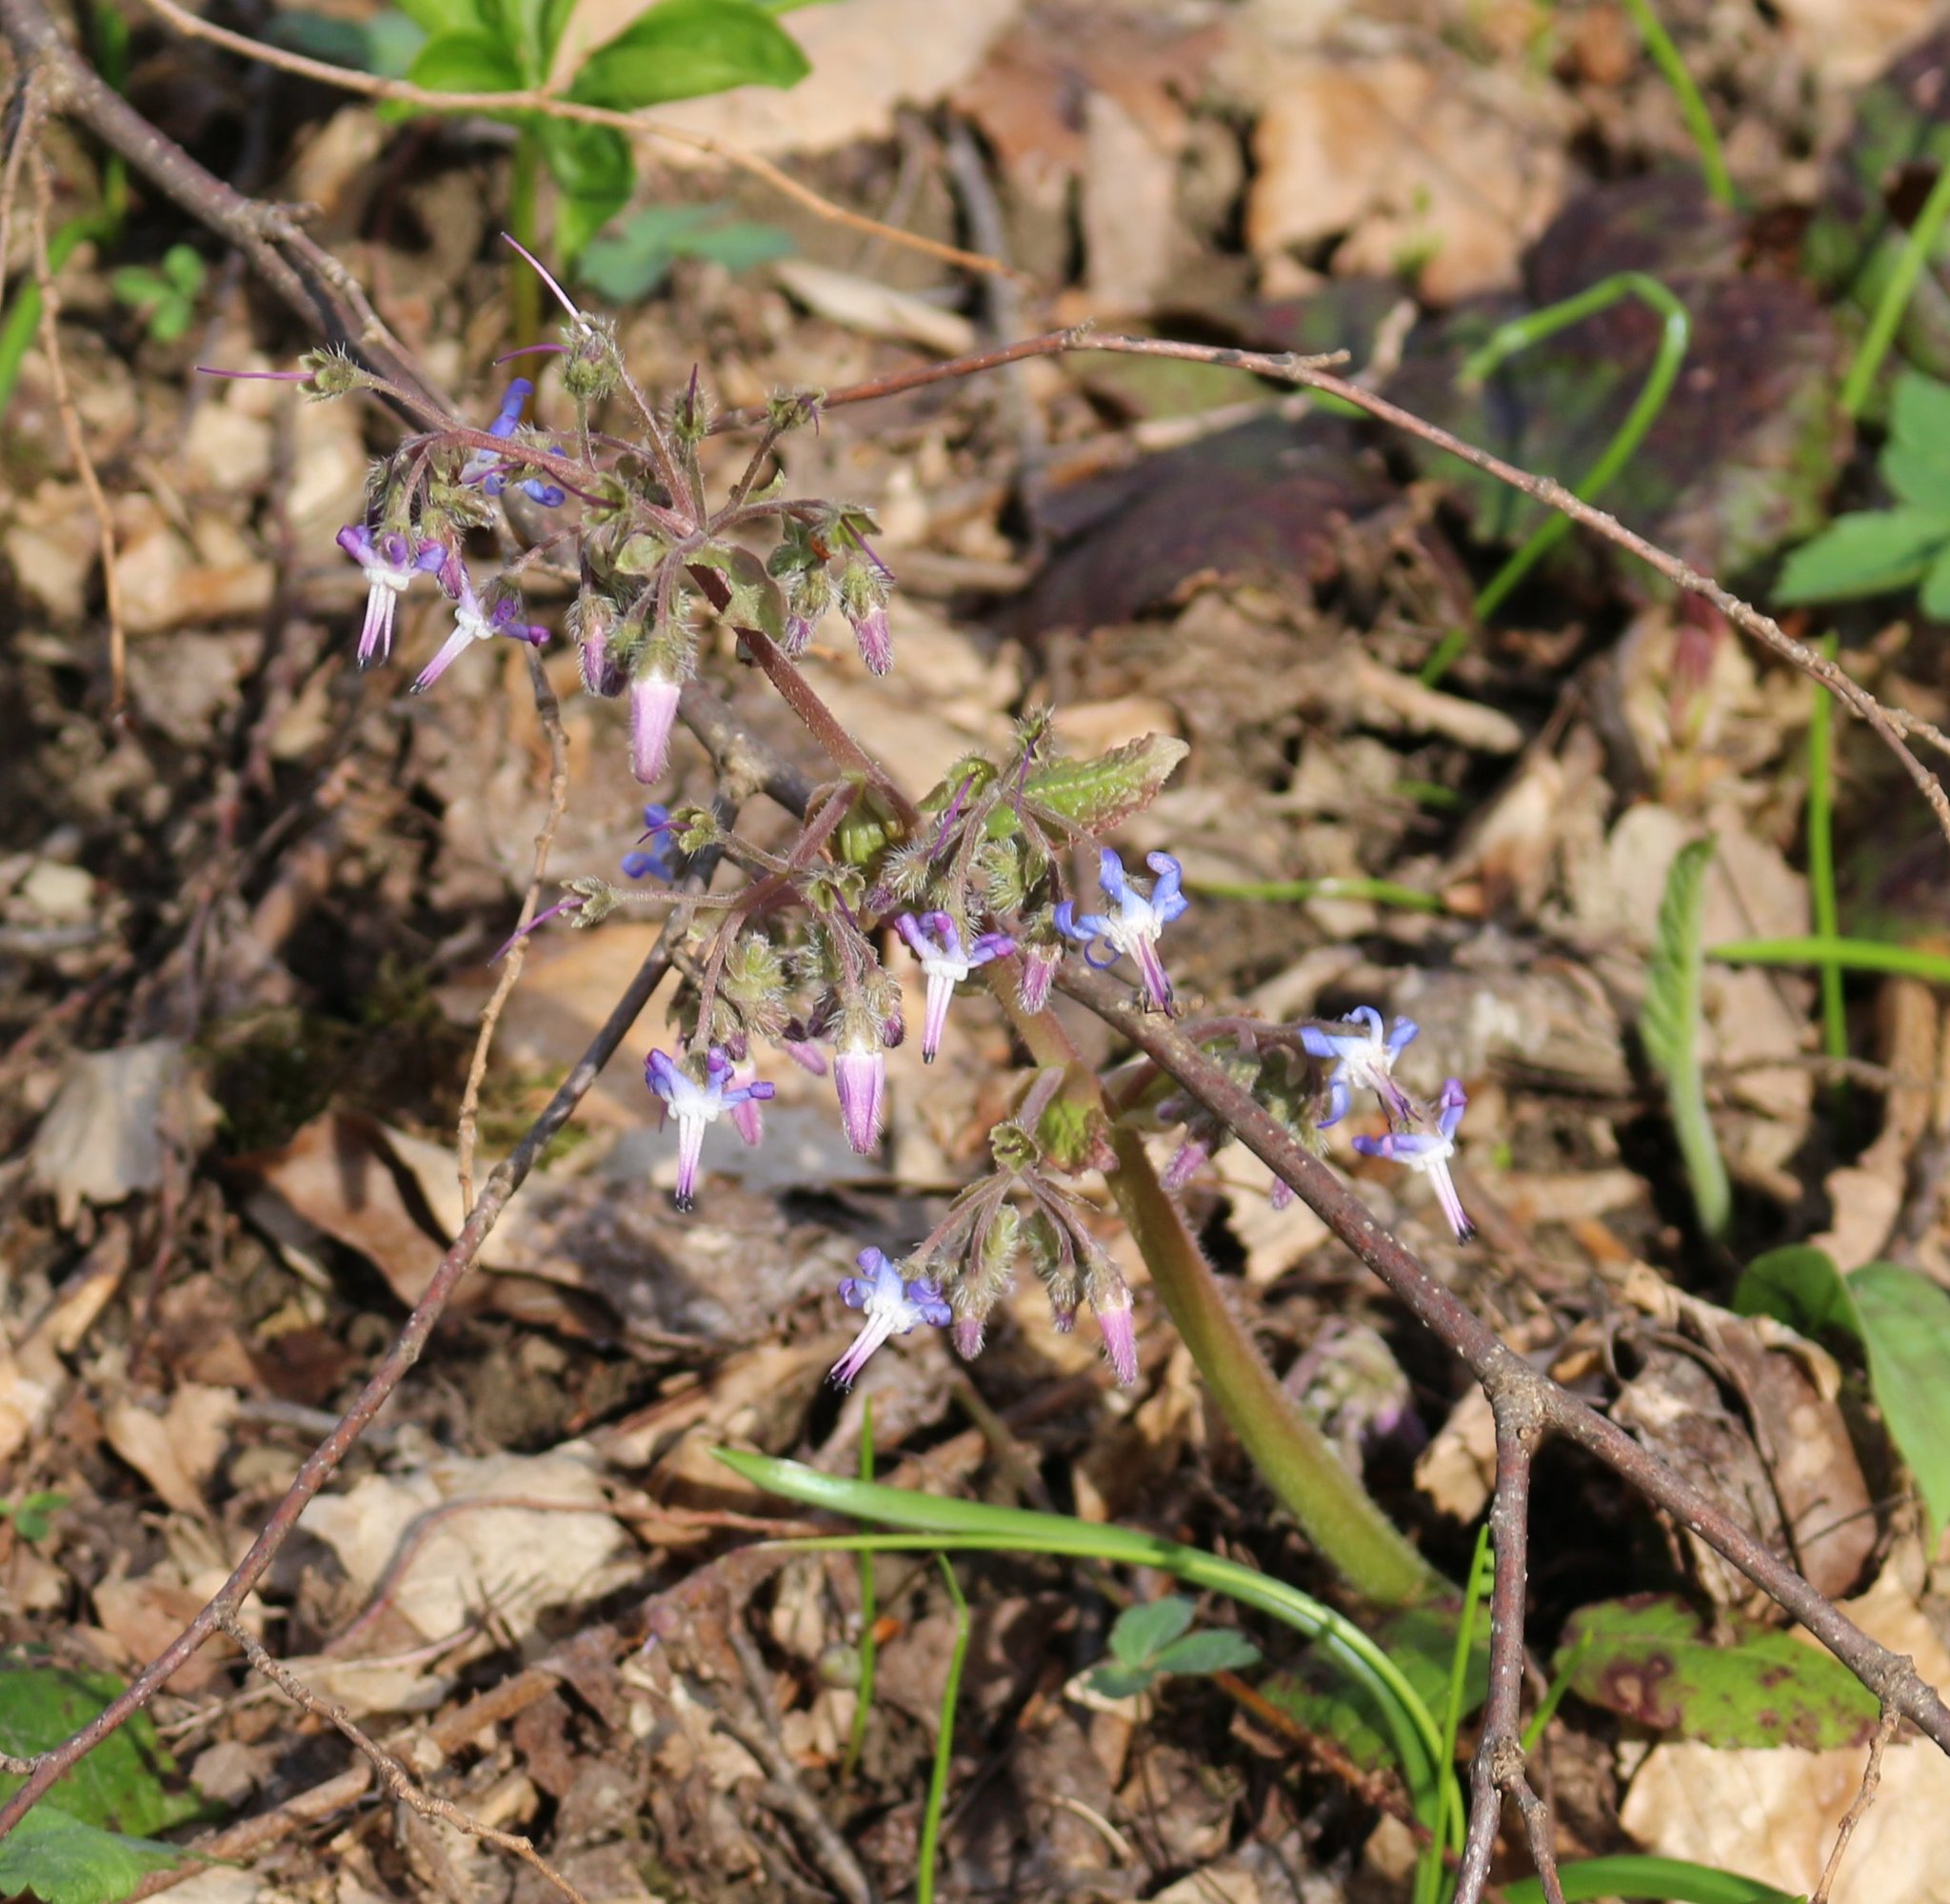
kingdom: Plantae
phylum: Tracheophyta
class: Magnoliopsida
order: Boraginales
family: Boraginaceae
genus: Trachystemon
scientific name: Trachystemon orientale
